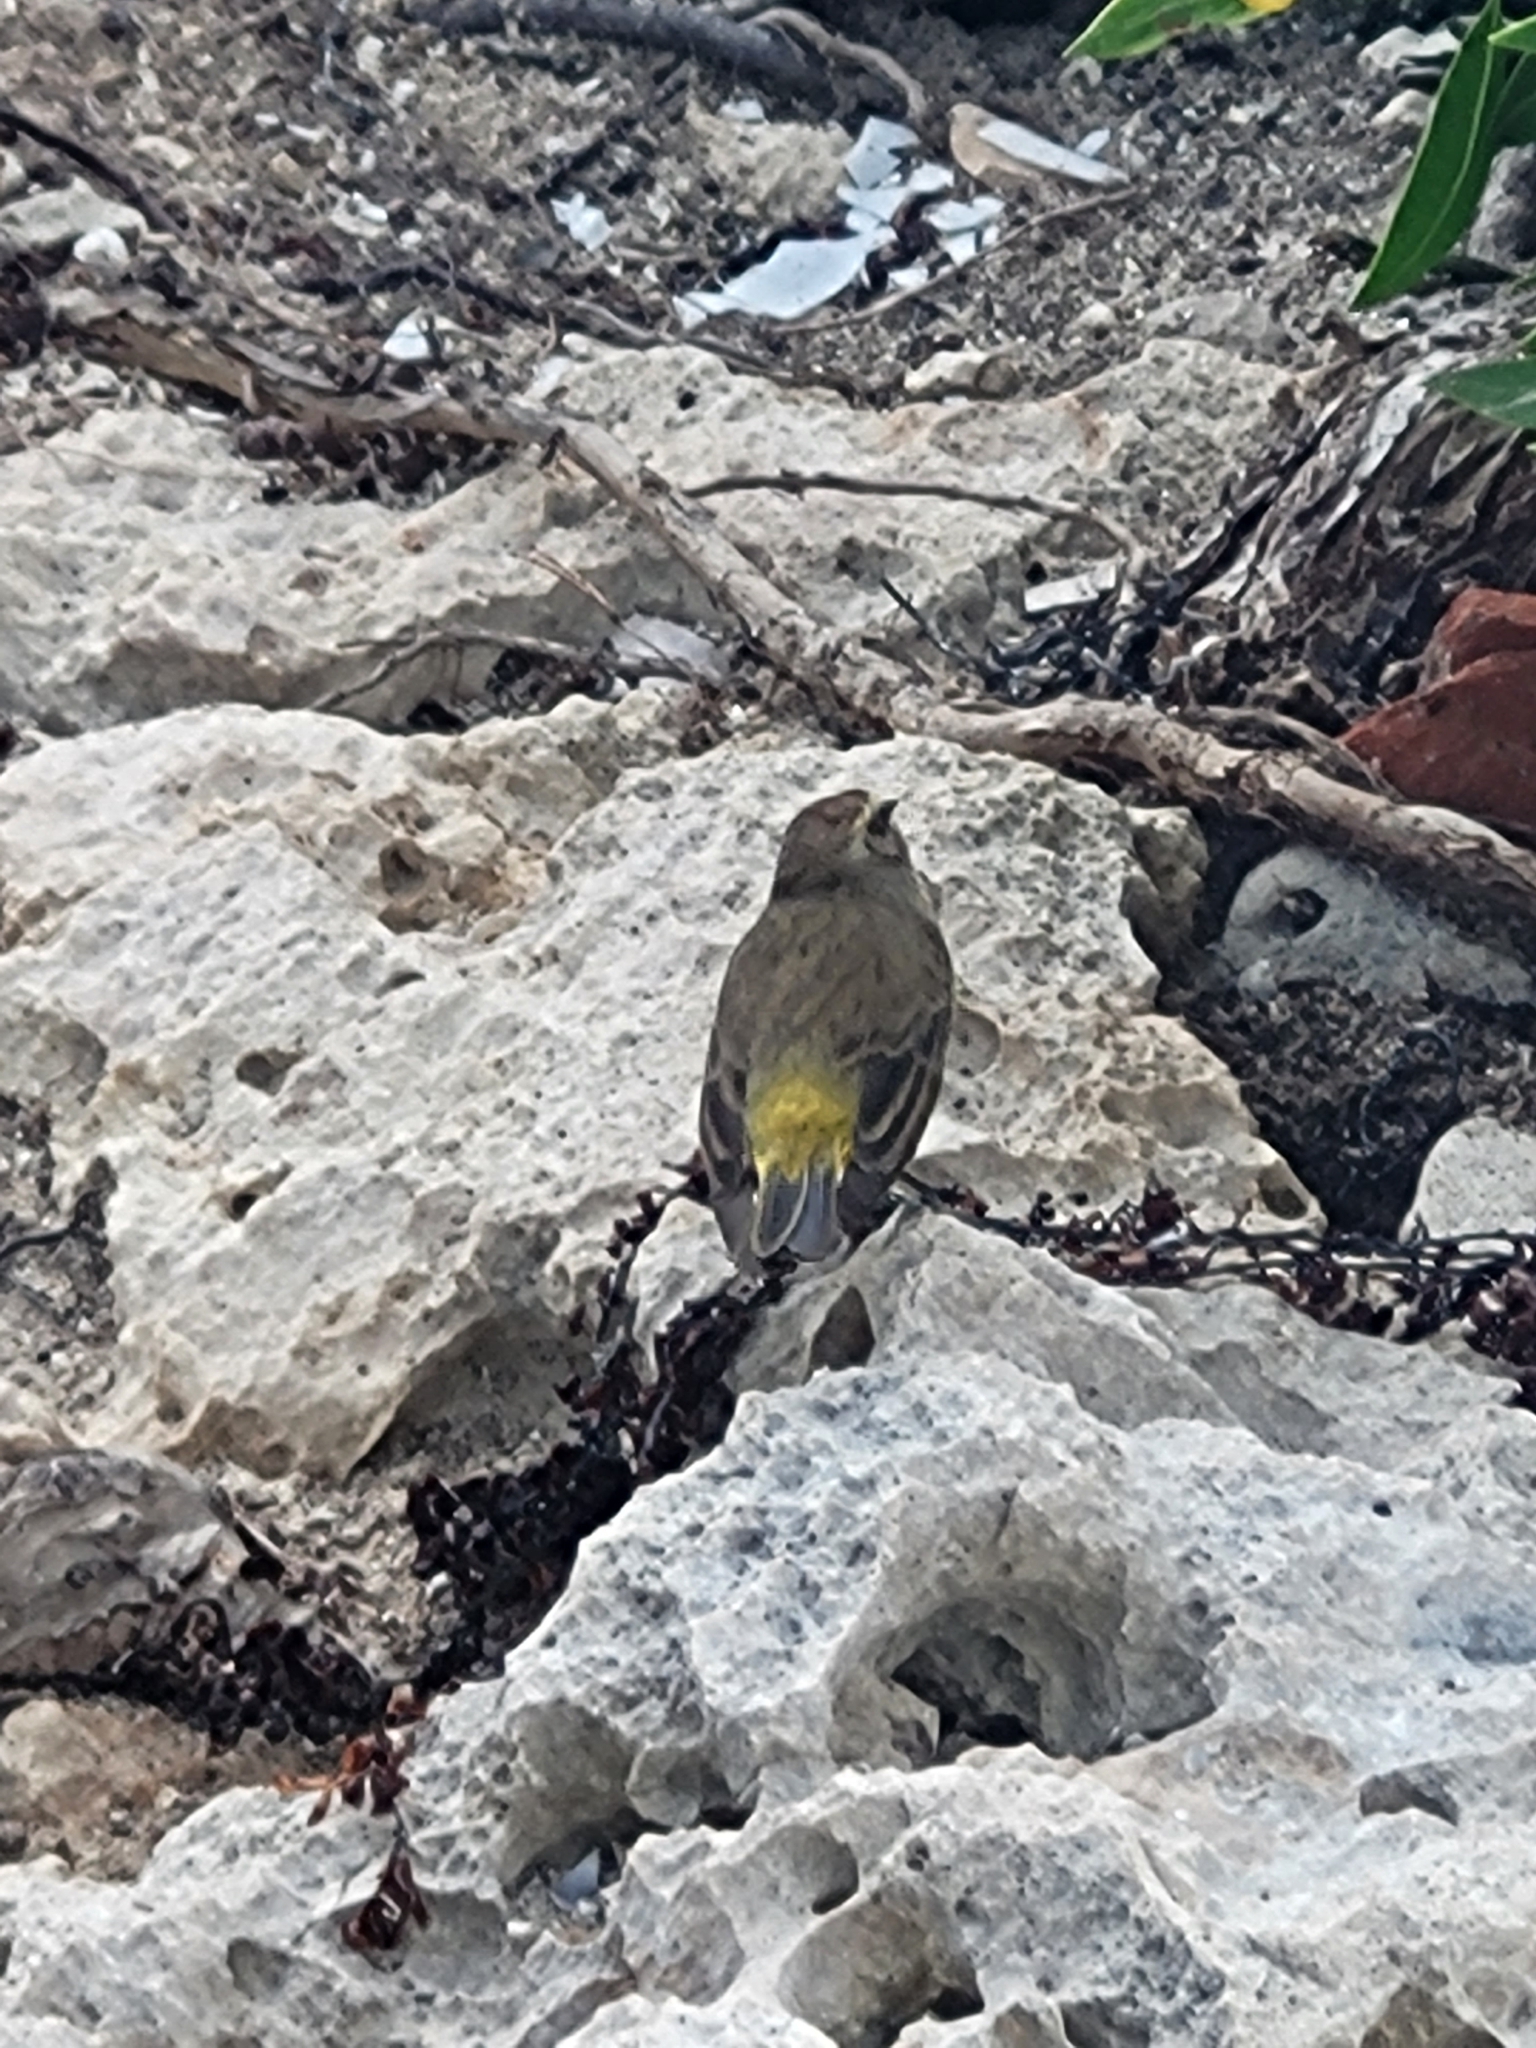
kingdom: Animalia
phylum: Chordata
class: Aves
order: Passeriformes
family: Parulidae
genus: Setophaga
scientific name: Setophaga palmarum
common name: Palm warbler
